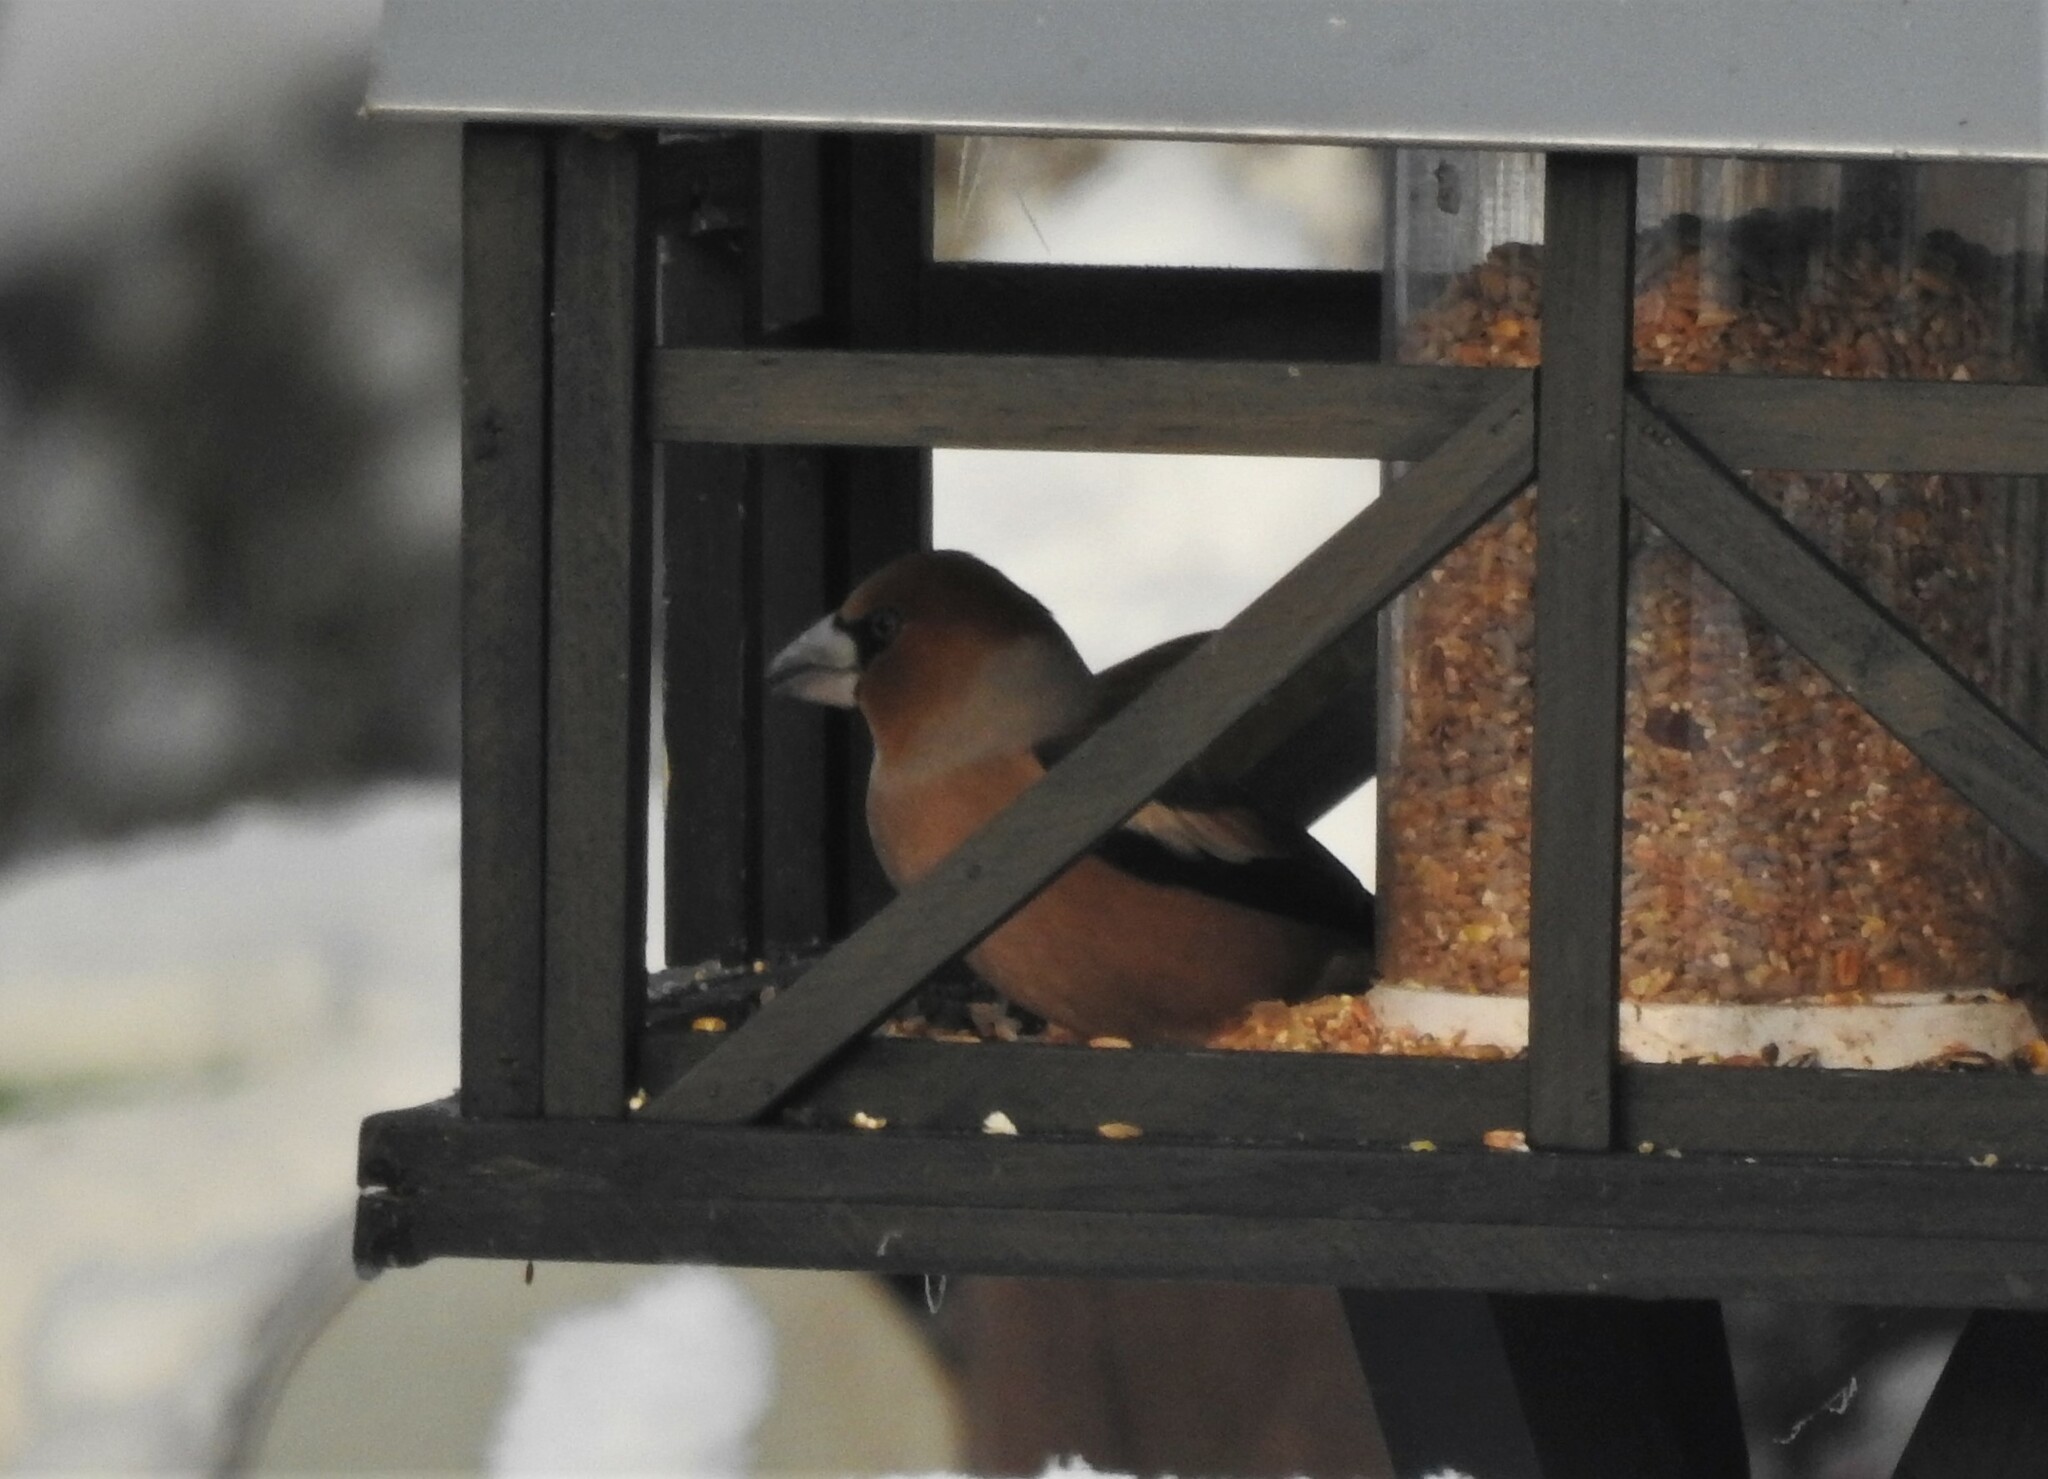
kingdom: Animalia
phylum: Chordata
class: Aves
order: Passeriformes
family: Fringillidae
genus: Coccothraustes
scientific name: Coccothraustes coccothraustes
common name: Hawfinch
